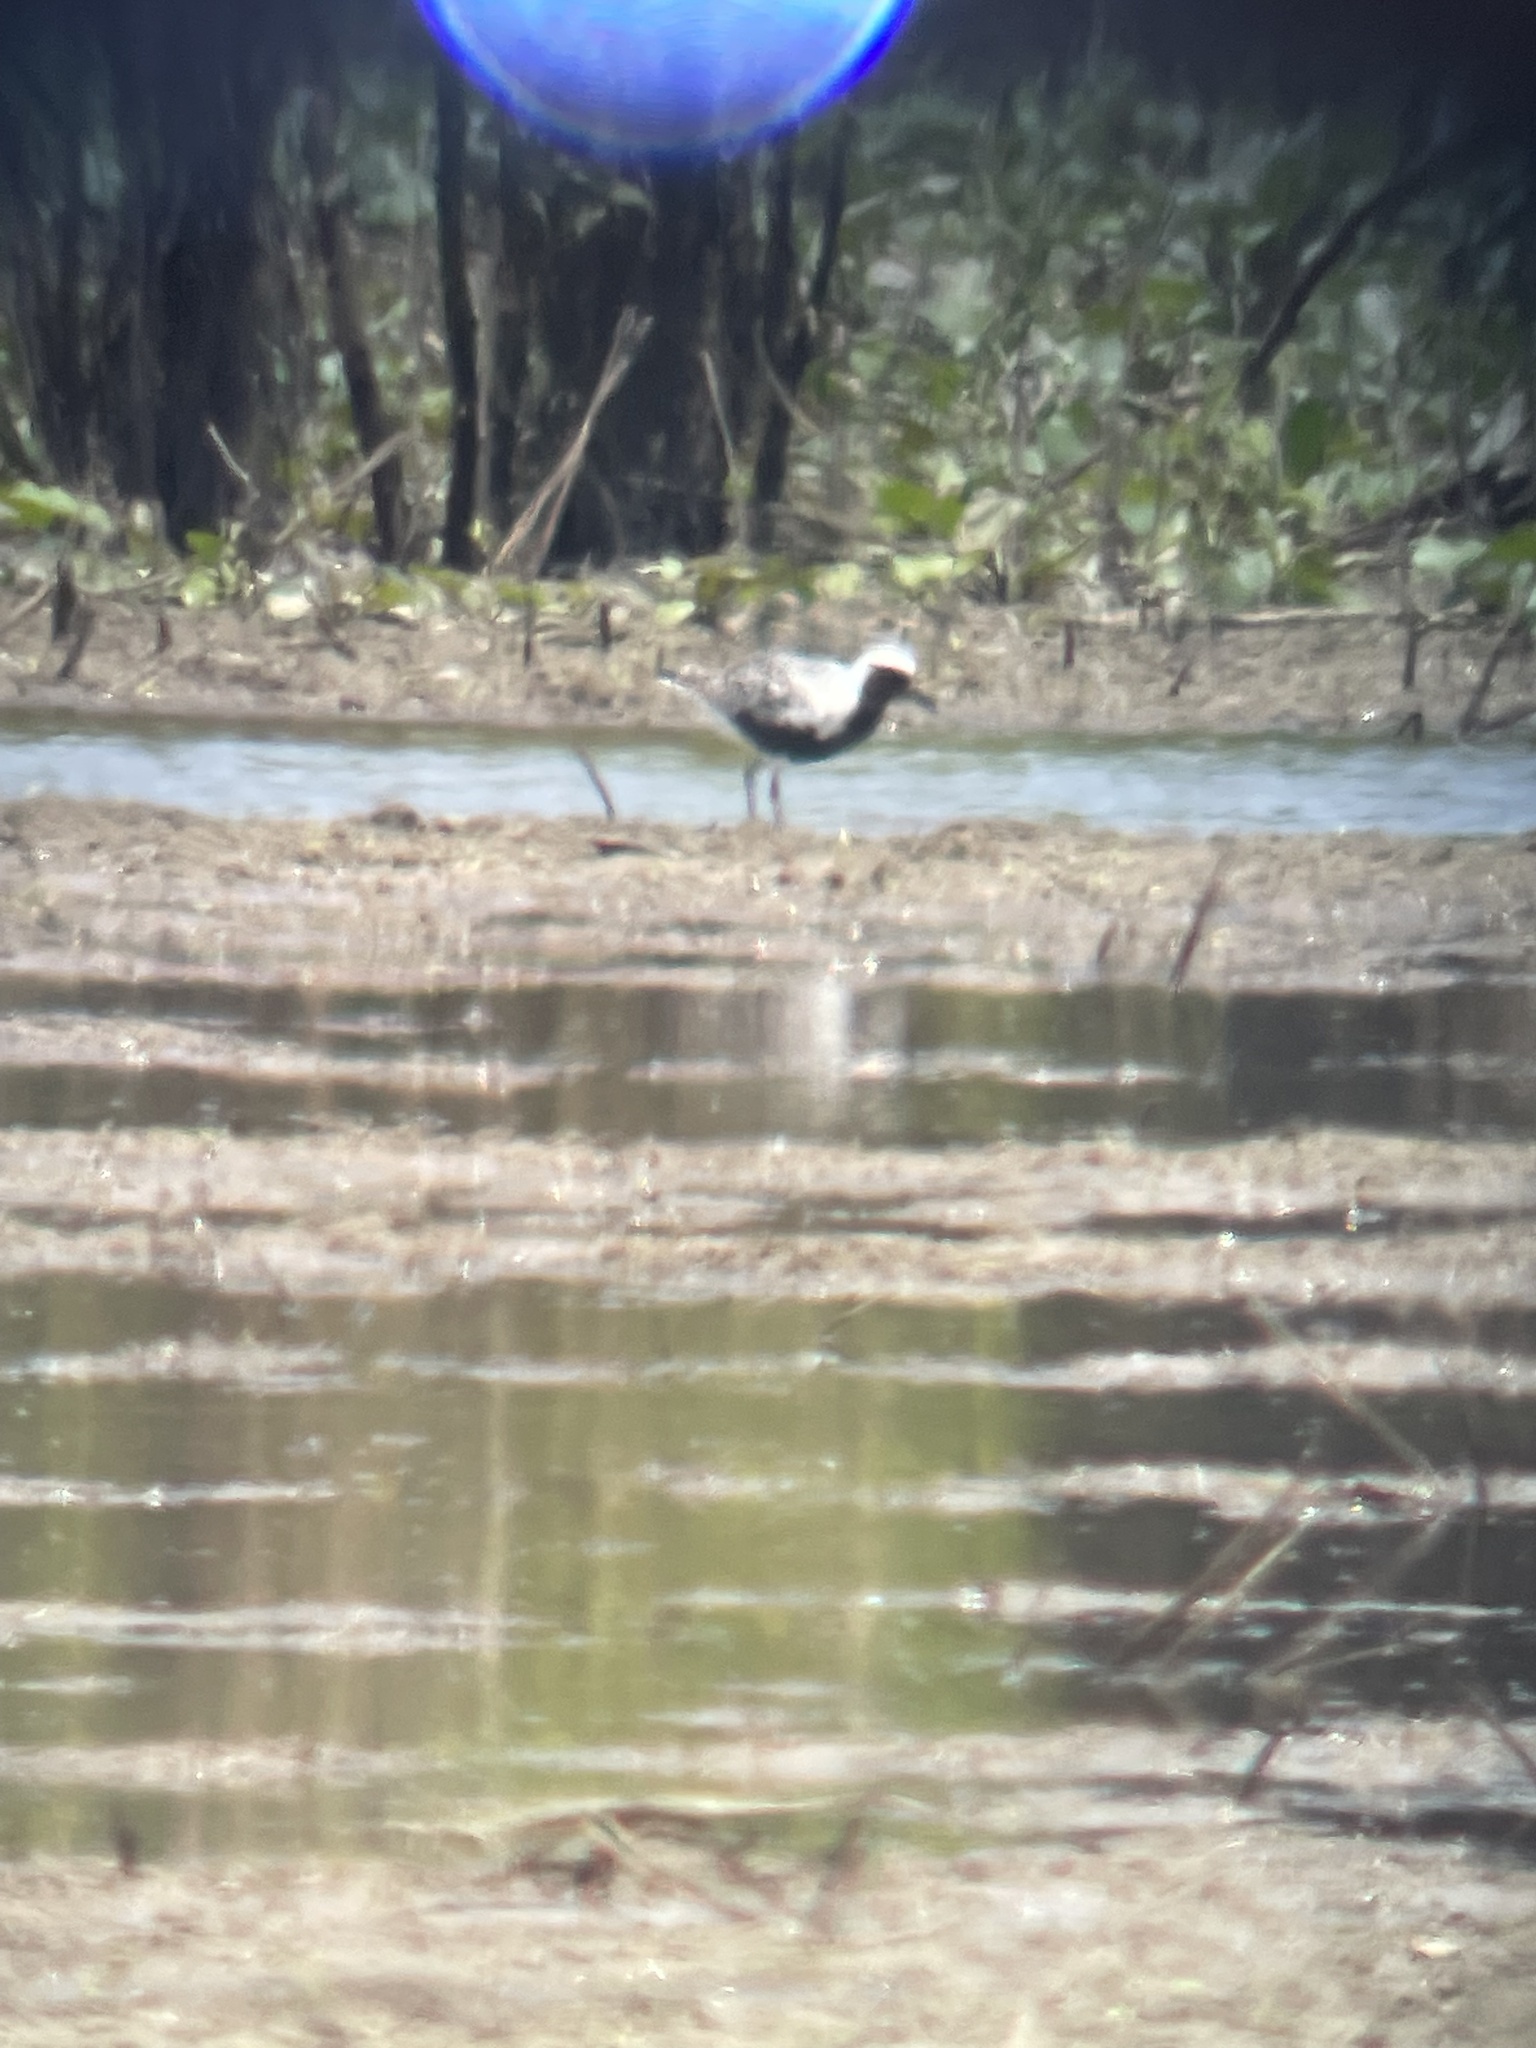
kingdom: Animalia
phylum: Chordata
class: Aves
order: Charadriiformes
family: Charadriidae
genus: Pluvialis
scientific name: Pluvialis squatarola
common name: Grey plover
